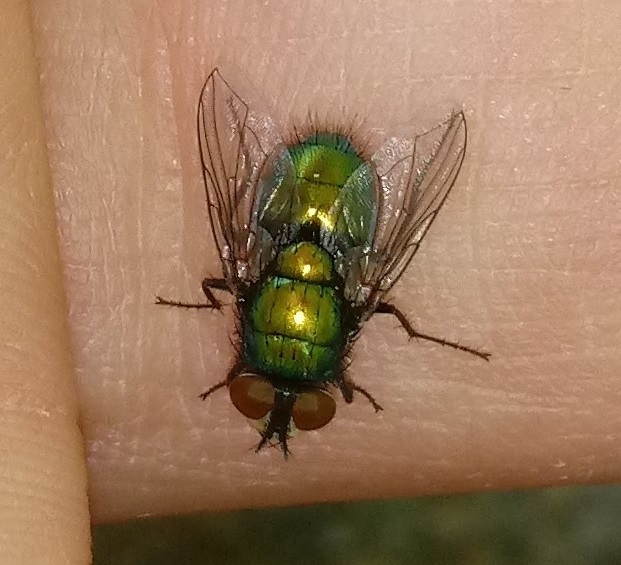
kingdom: Animalia
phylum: Arthropoda
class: Insecta
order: Diptera
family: Calliphoridae
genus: Lucilia
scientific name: Lucilia sericata
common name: Blow fly
